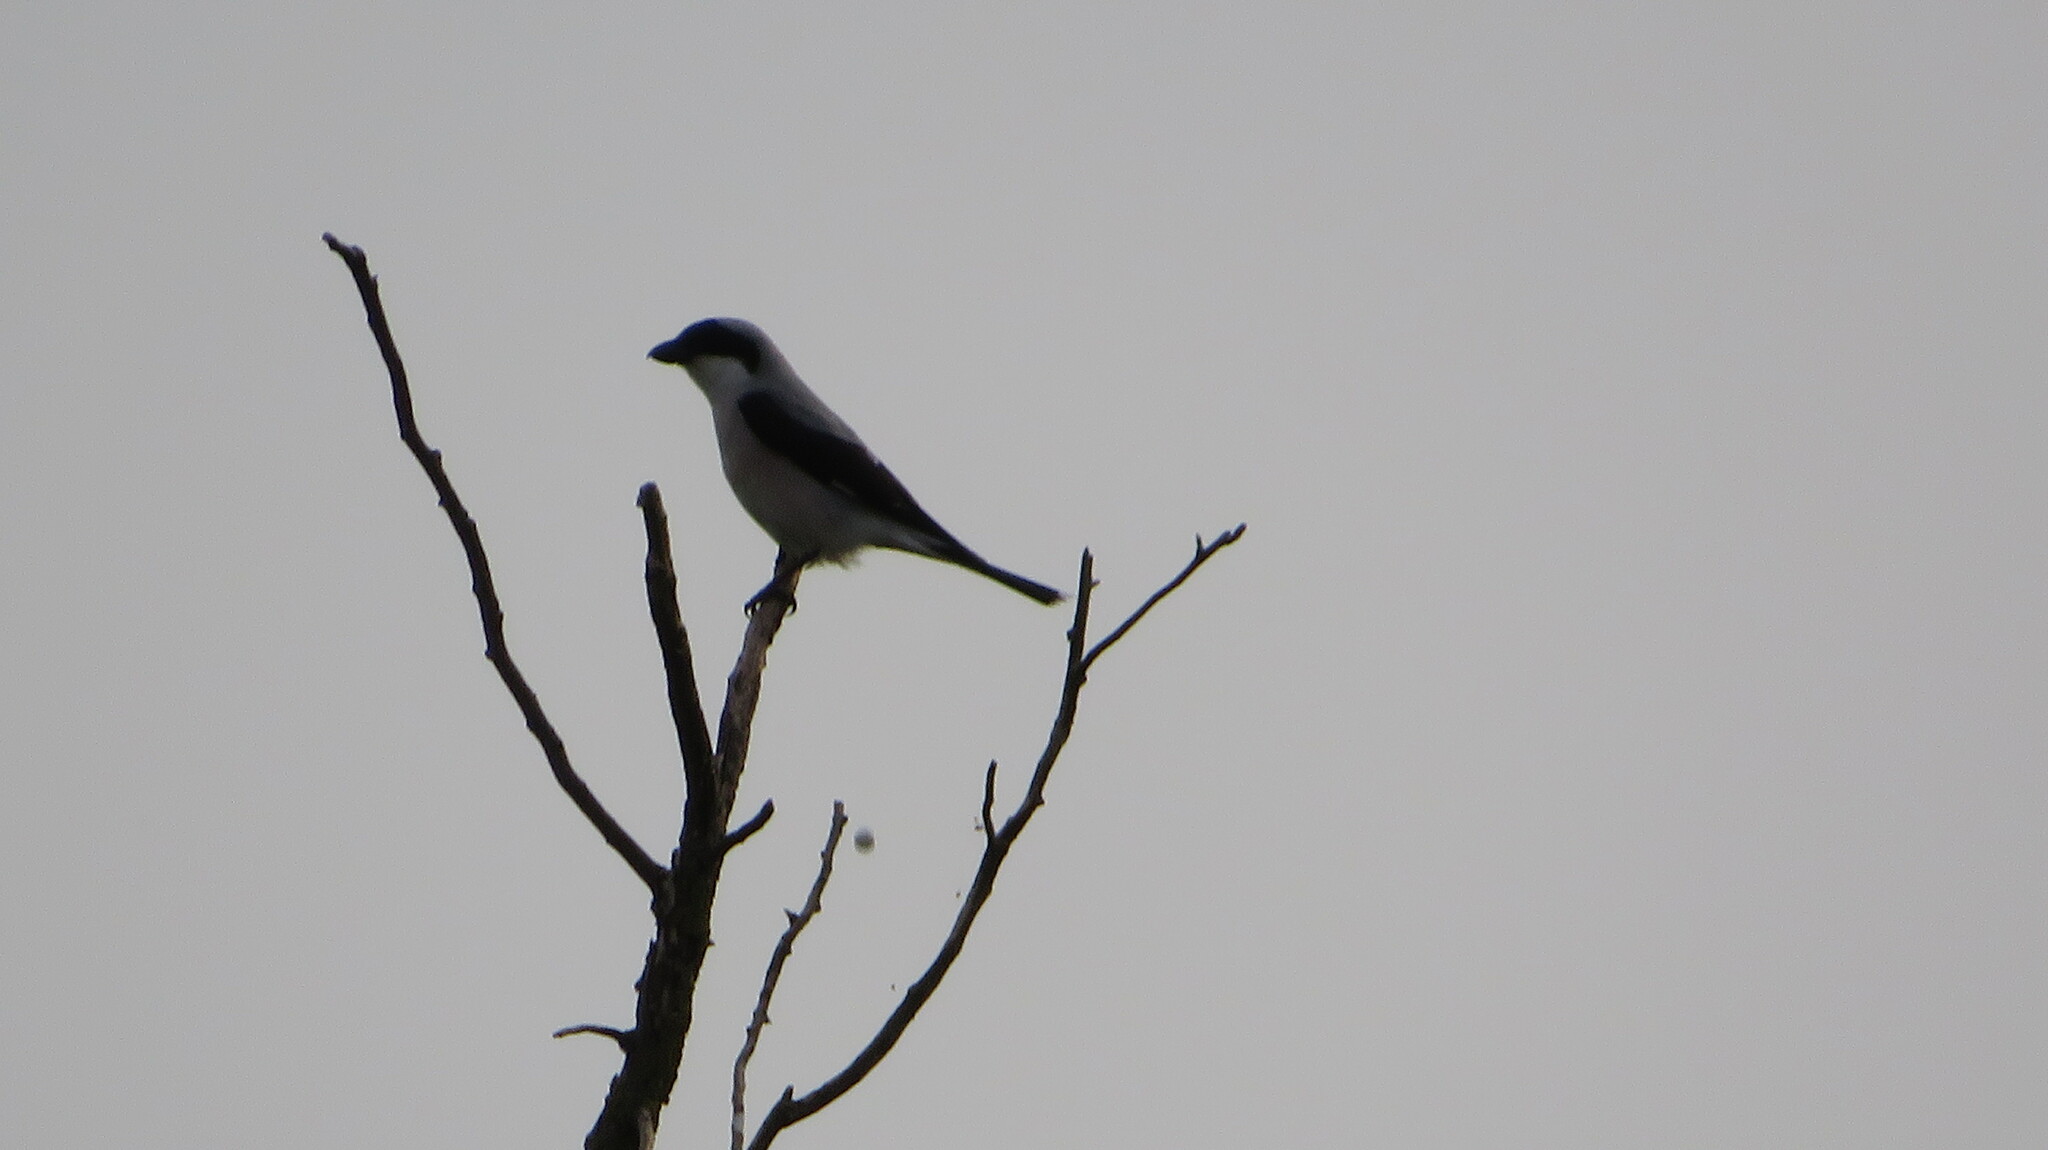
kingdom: Animalia
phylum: Chordata
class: Aves
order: Passeriformes
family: Laniidae
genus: Lanius
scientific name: Lanius minor
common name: Lesser grey shrike
